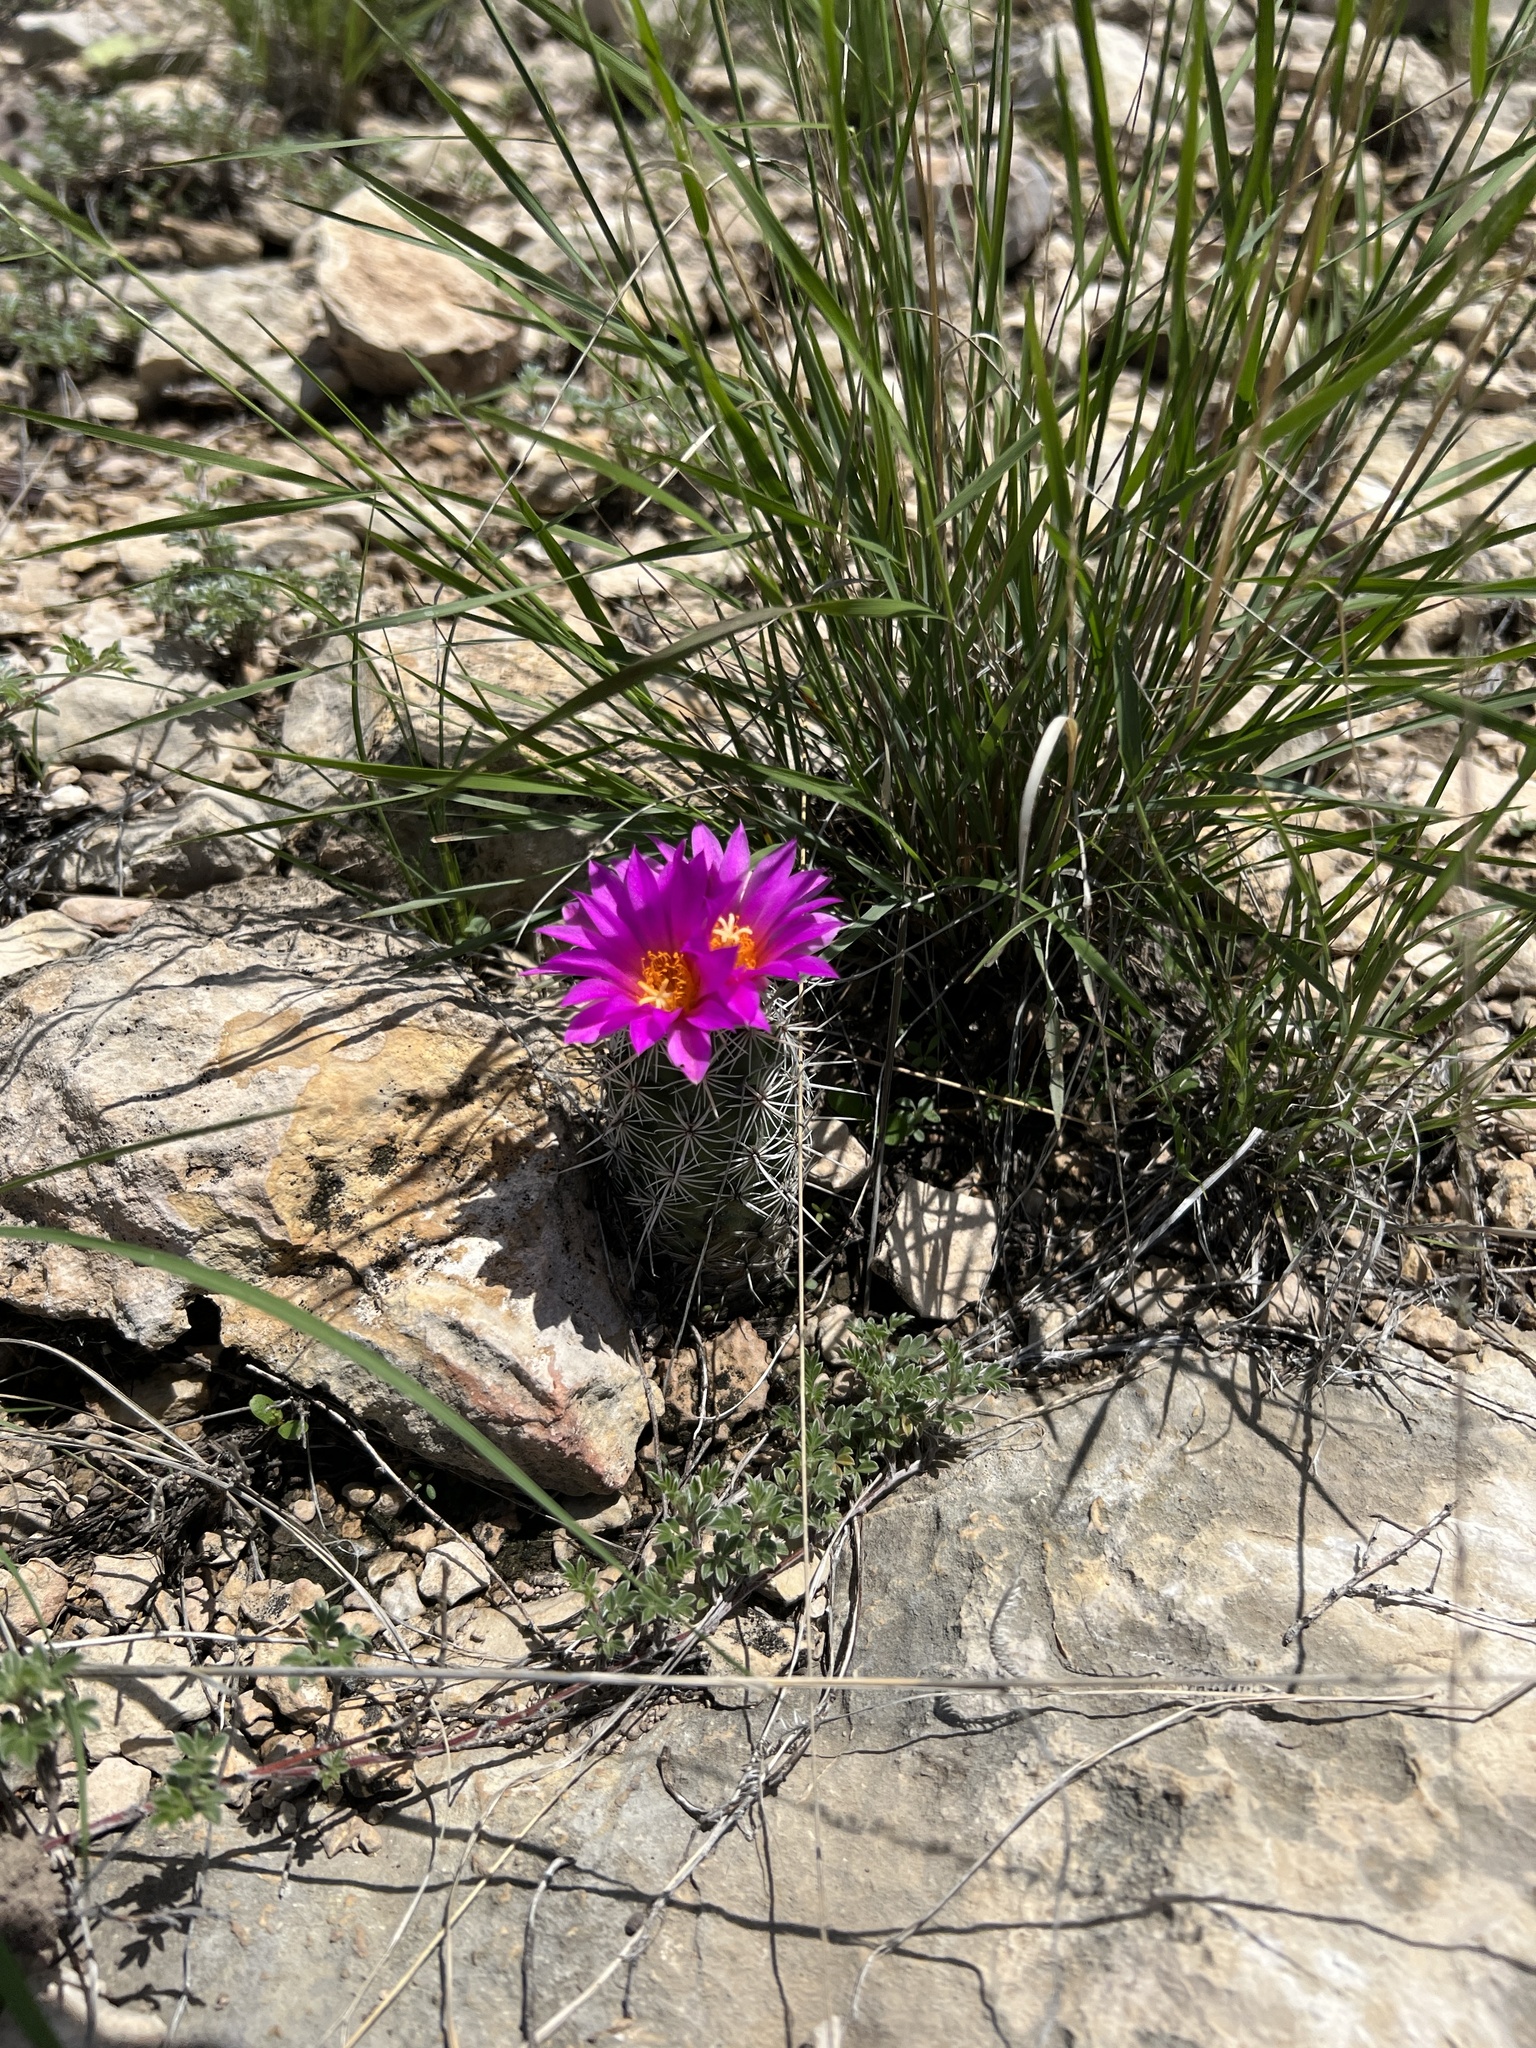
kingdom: Plantae
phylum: Tracheophyta
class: Magnoliopsida
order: Caryophyllales
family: Cactaceae
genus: Cochemiea
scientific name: Cochemiea conoidea
